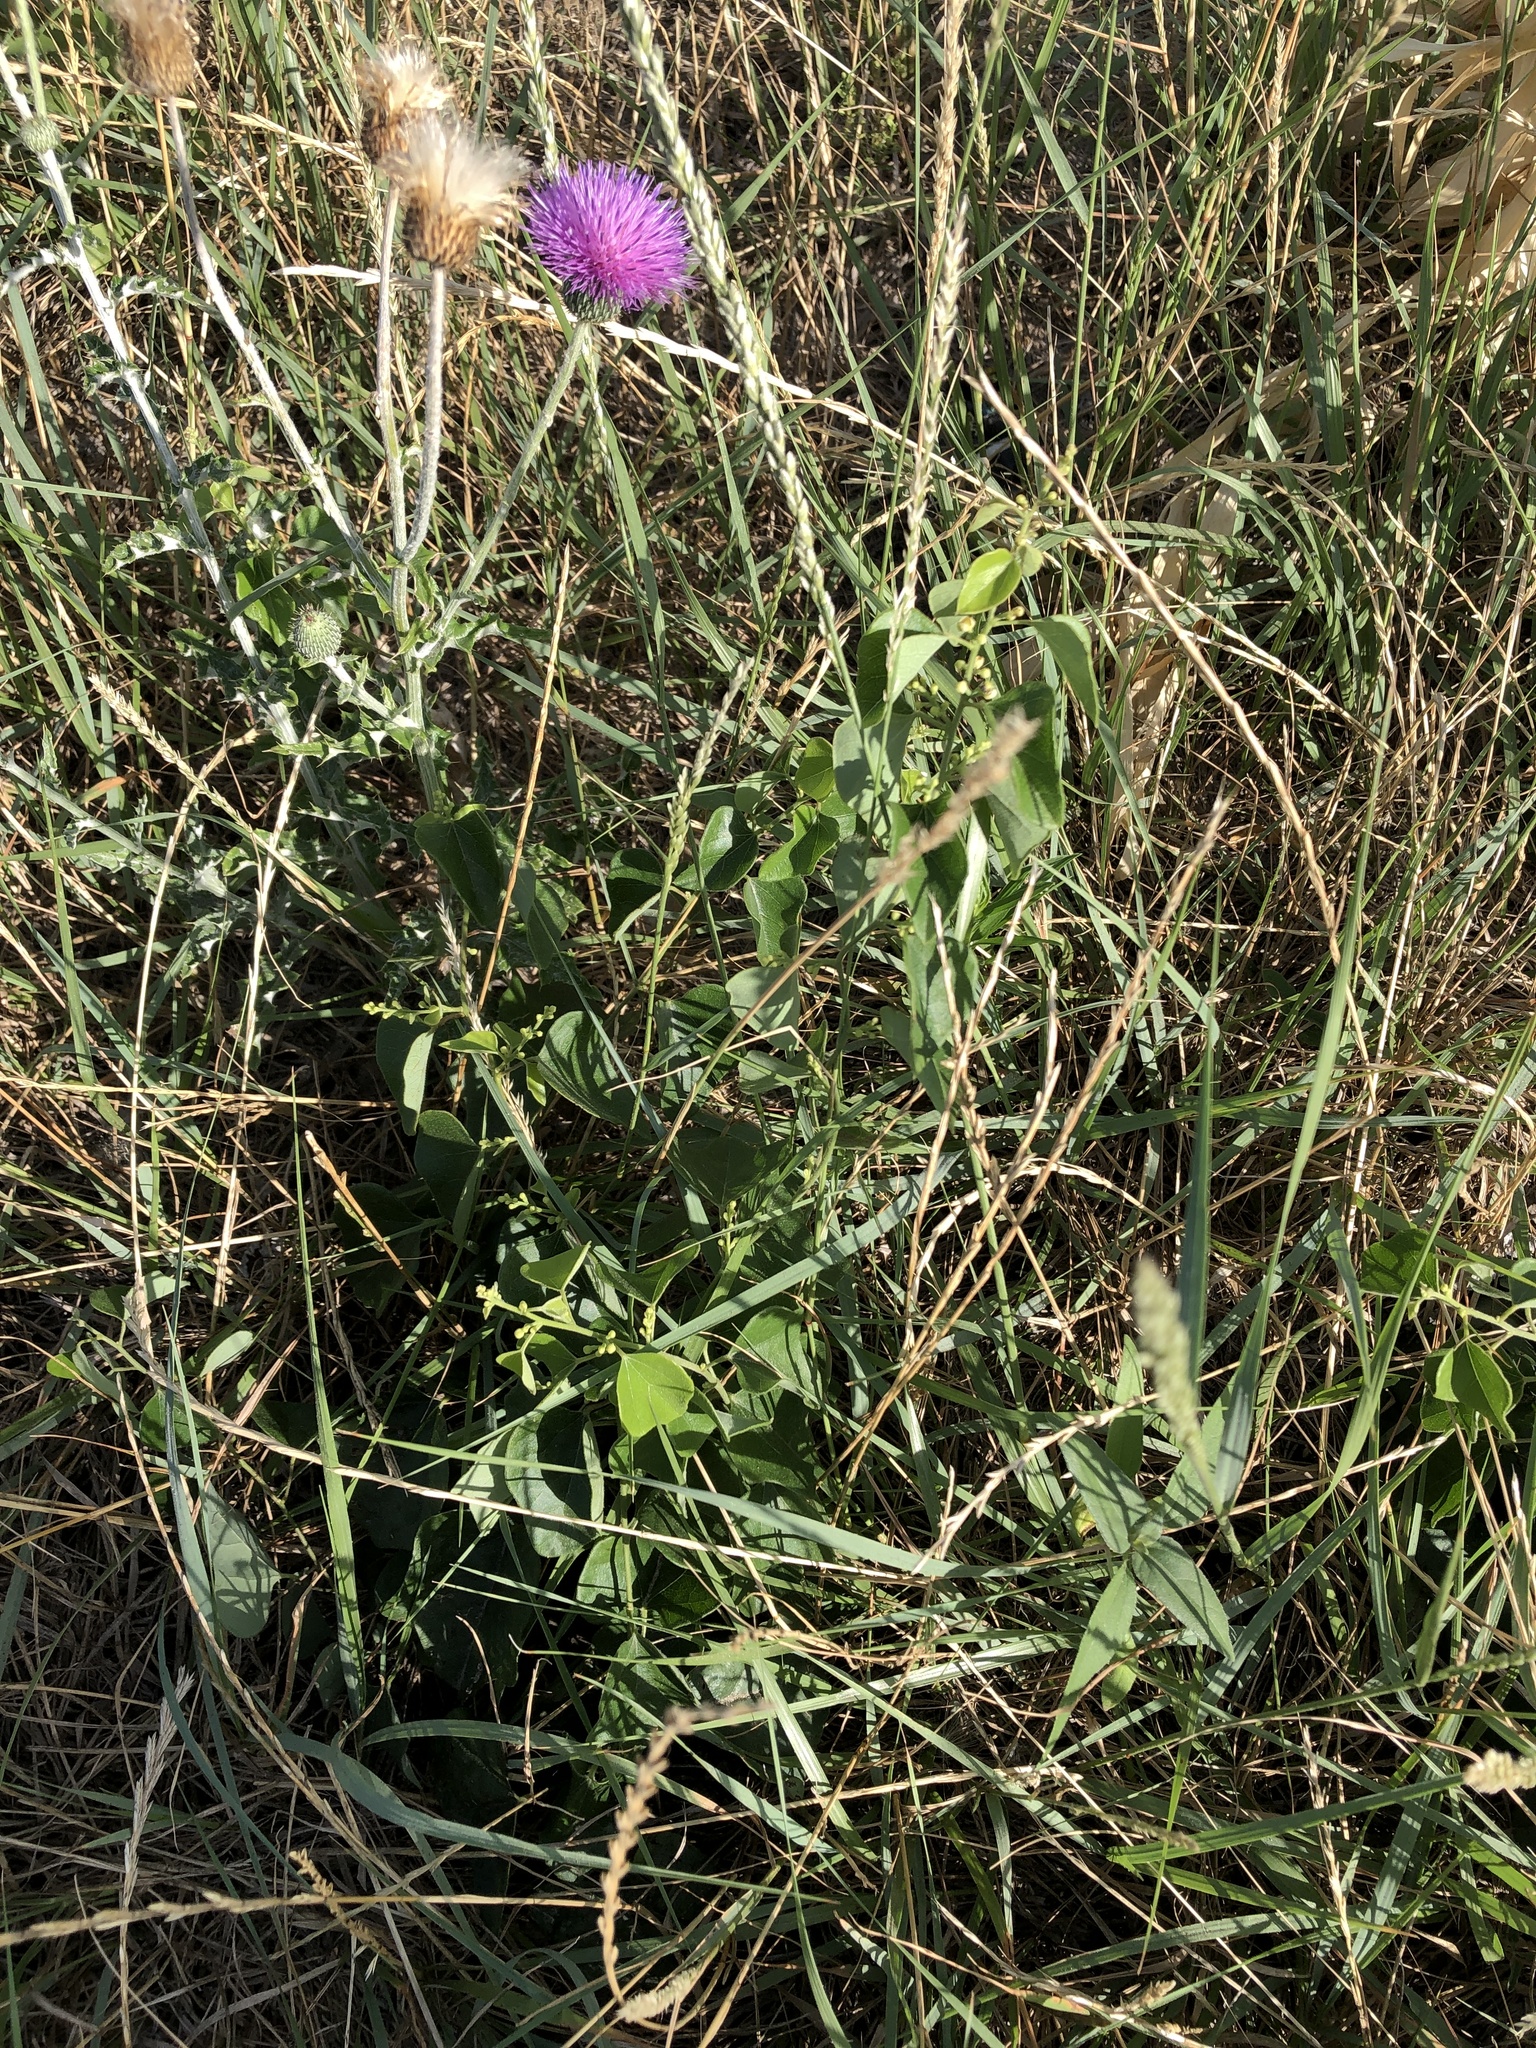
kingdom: Plantae
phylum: Tracheophyta
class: Magnoliopsida
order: Ranunculales
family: Menispermaceae
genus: Cocculus
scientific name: Cocculus carolinus
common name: Carolina moonseed
